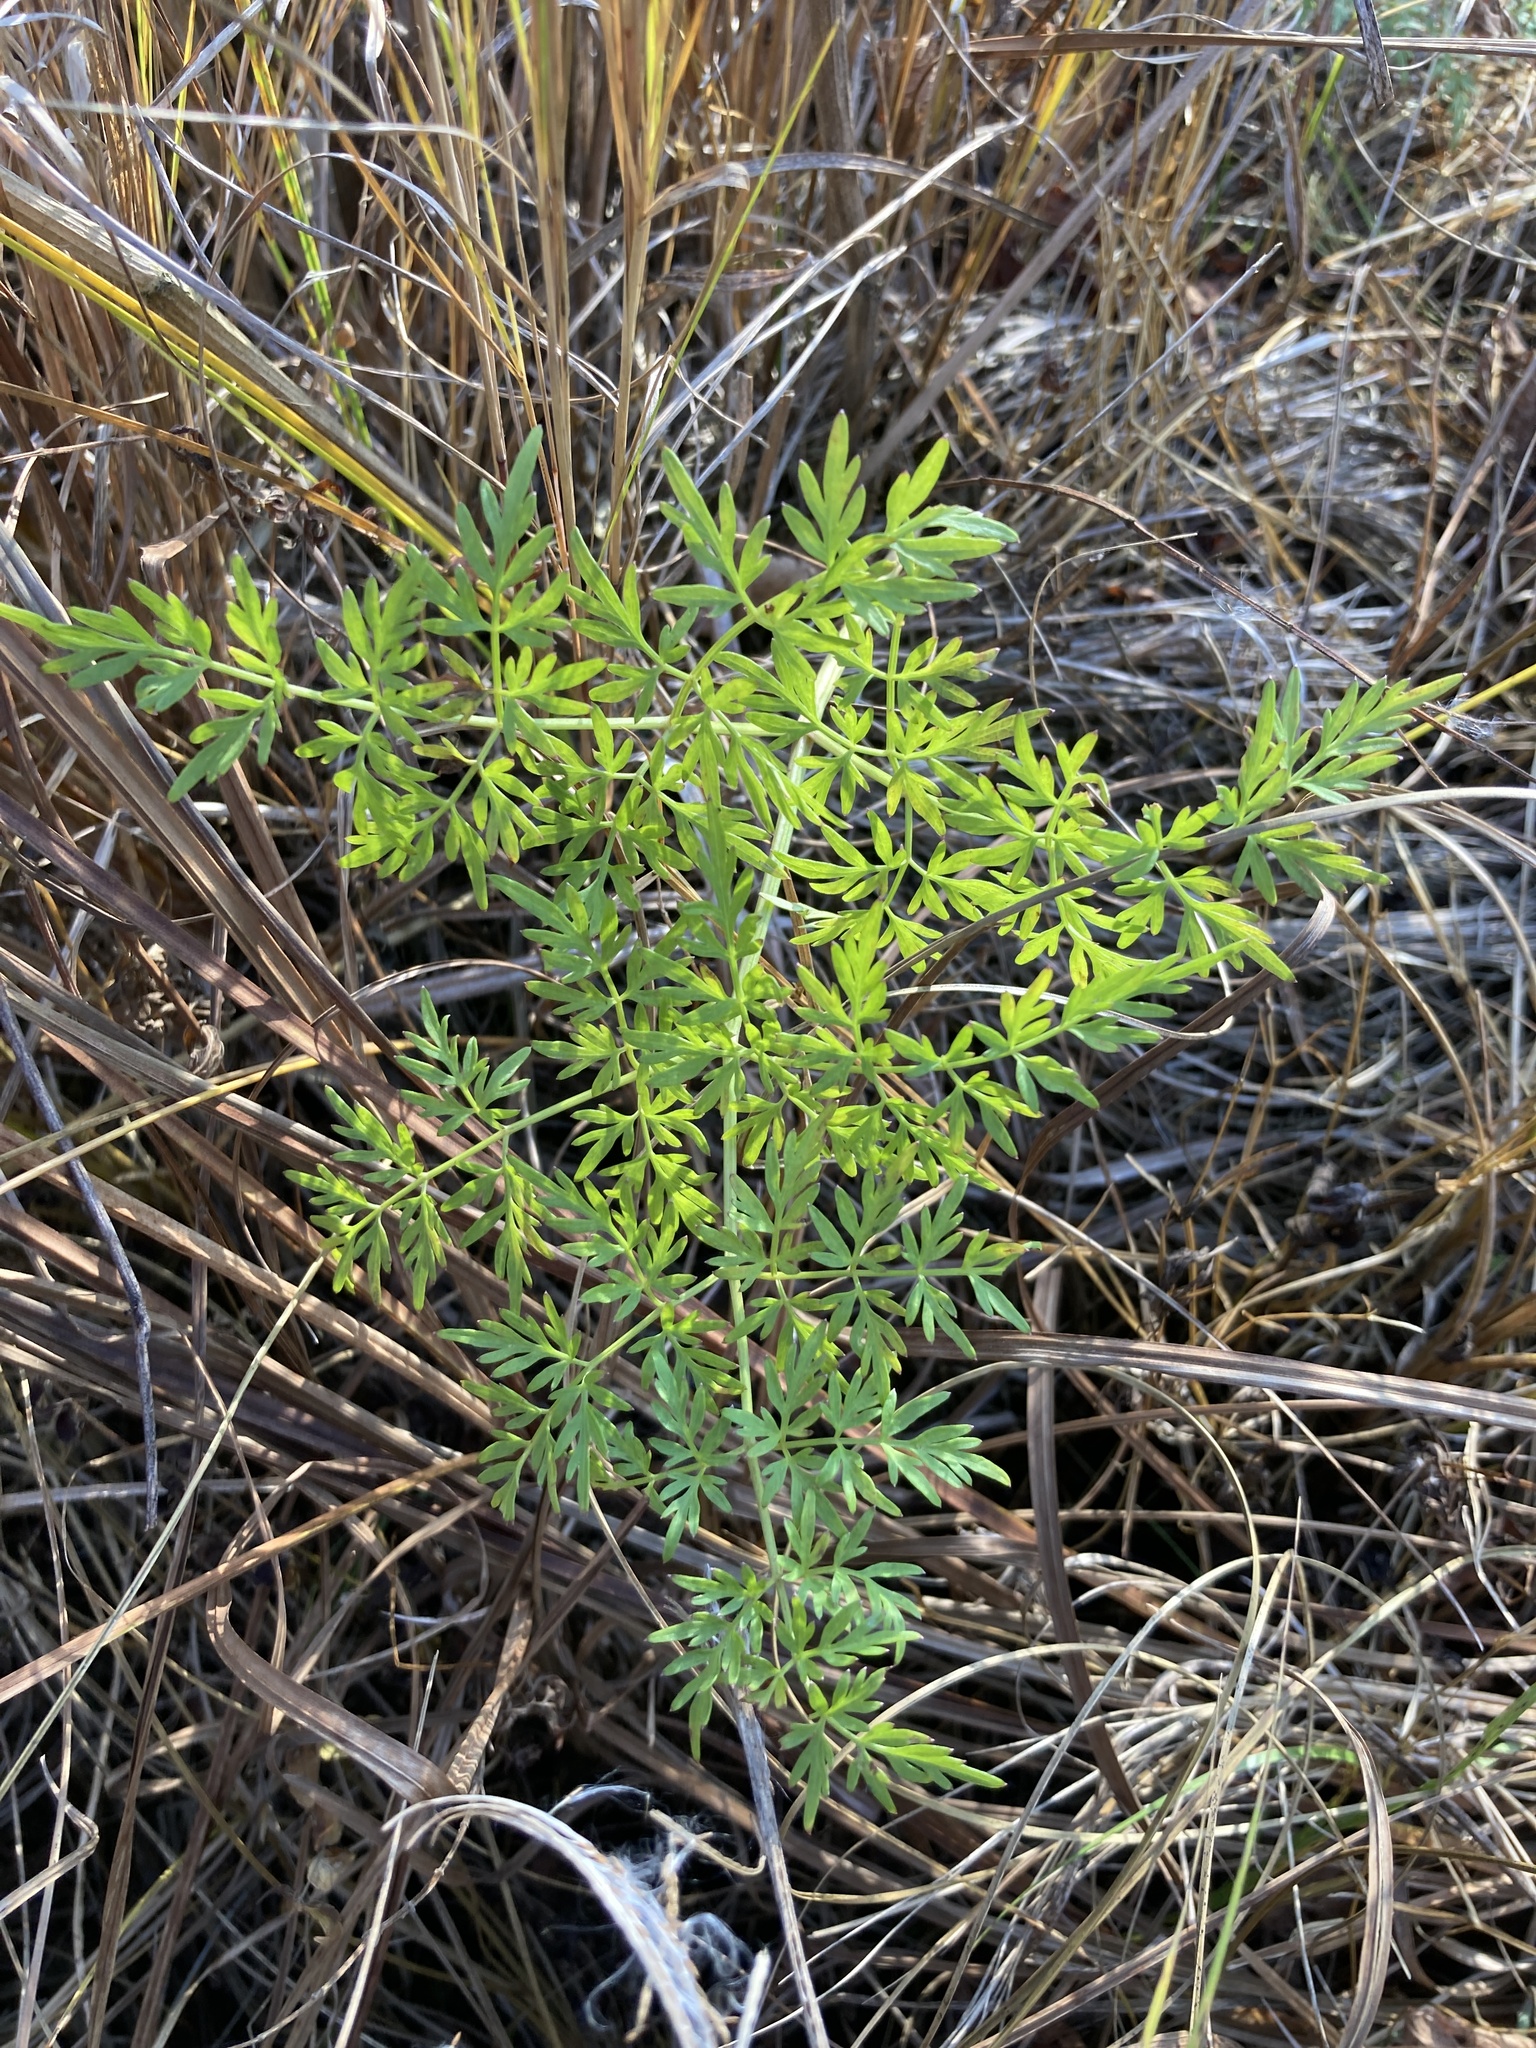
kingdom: Plantae
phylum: Tracheophyta
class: Magnoliopsida
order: Apiales
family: Apiaceae
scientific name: Apiaceae
